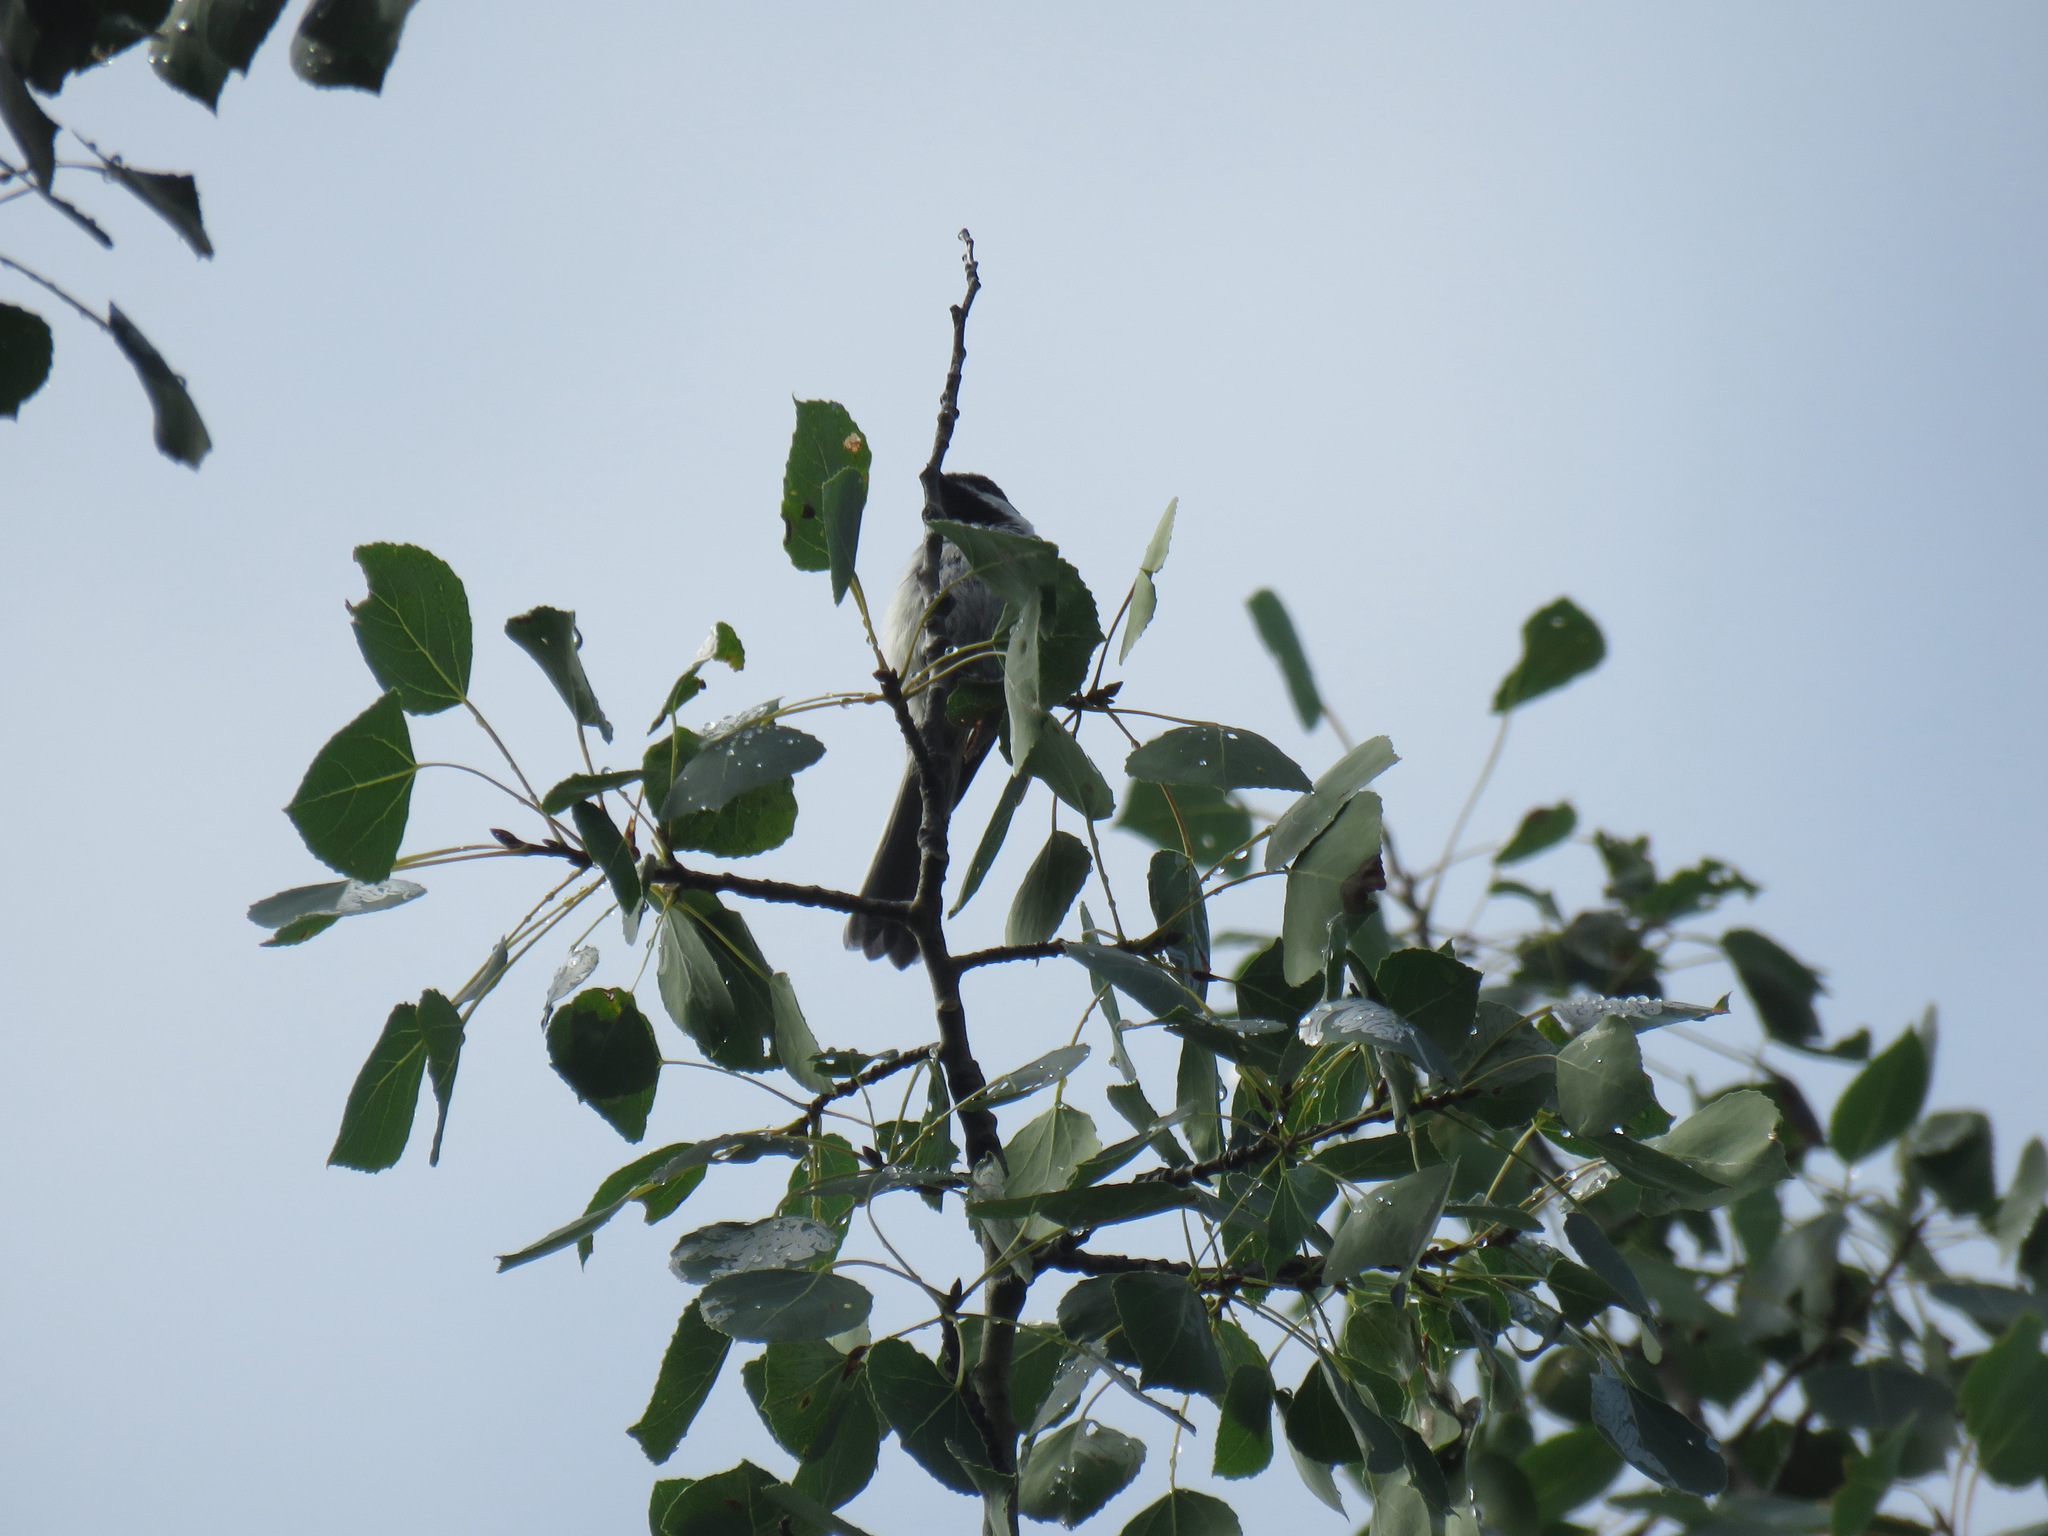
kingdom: Animalia
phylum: Chordata
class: Aves
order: Passeriformes
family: Paridae
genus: Poecile
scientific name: Poecile atricapillus
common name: Black-capped chickadee
